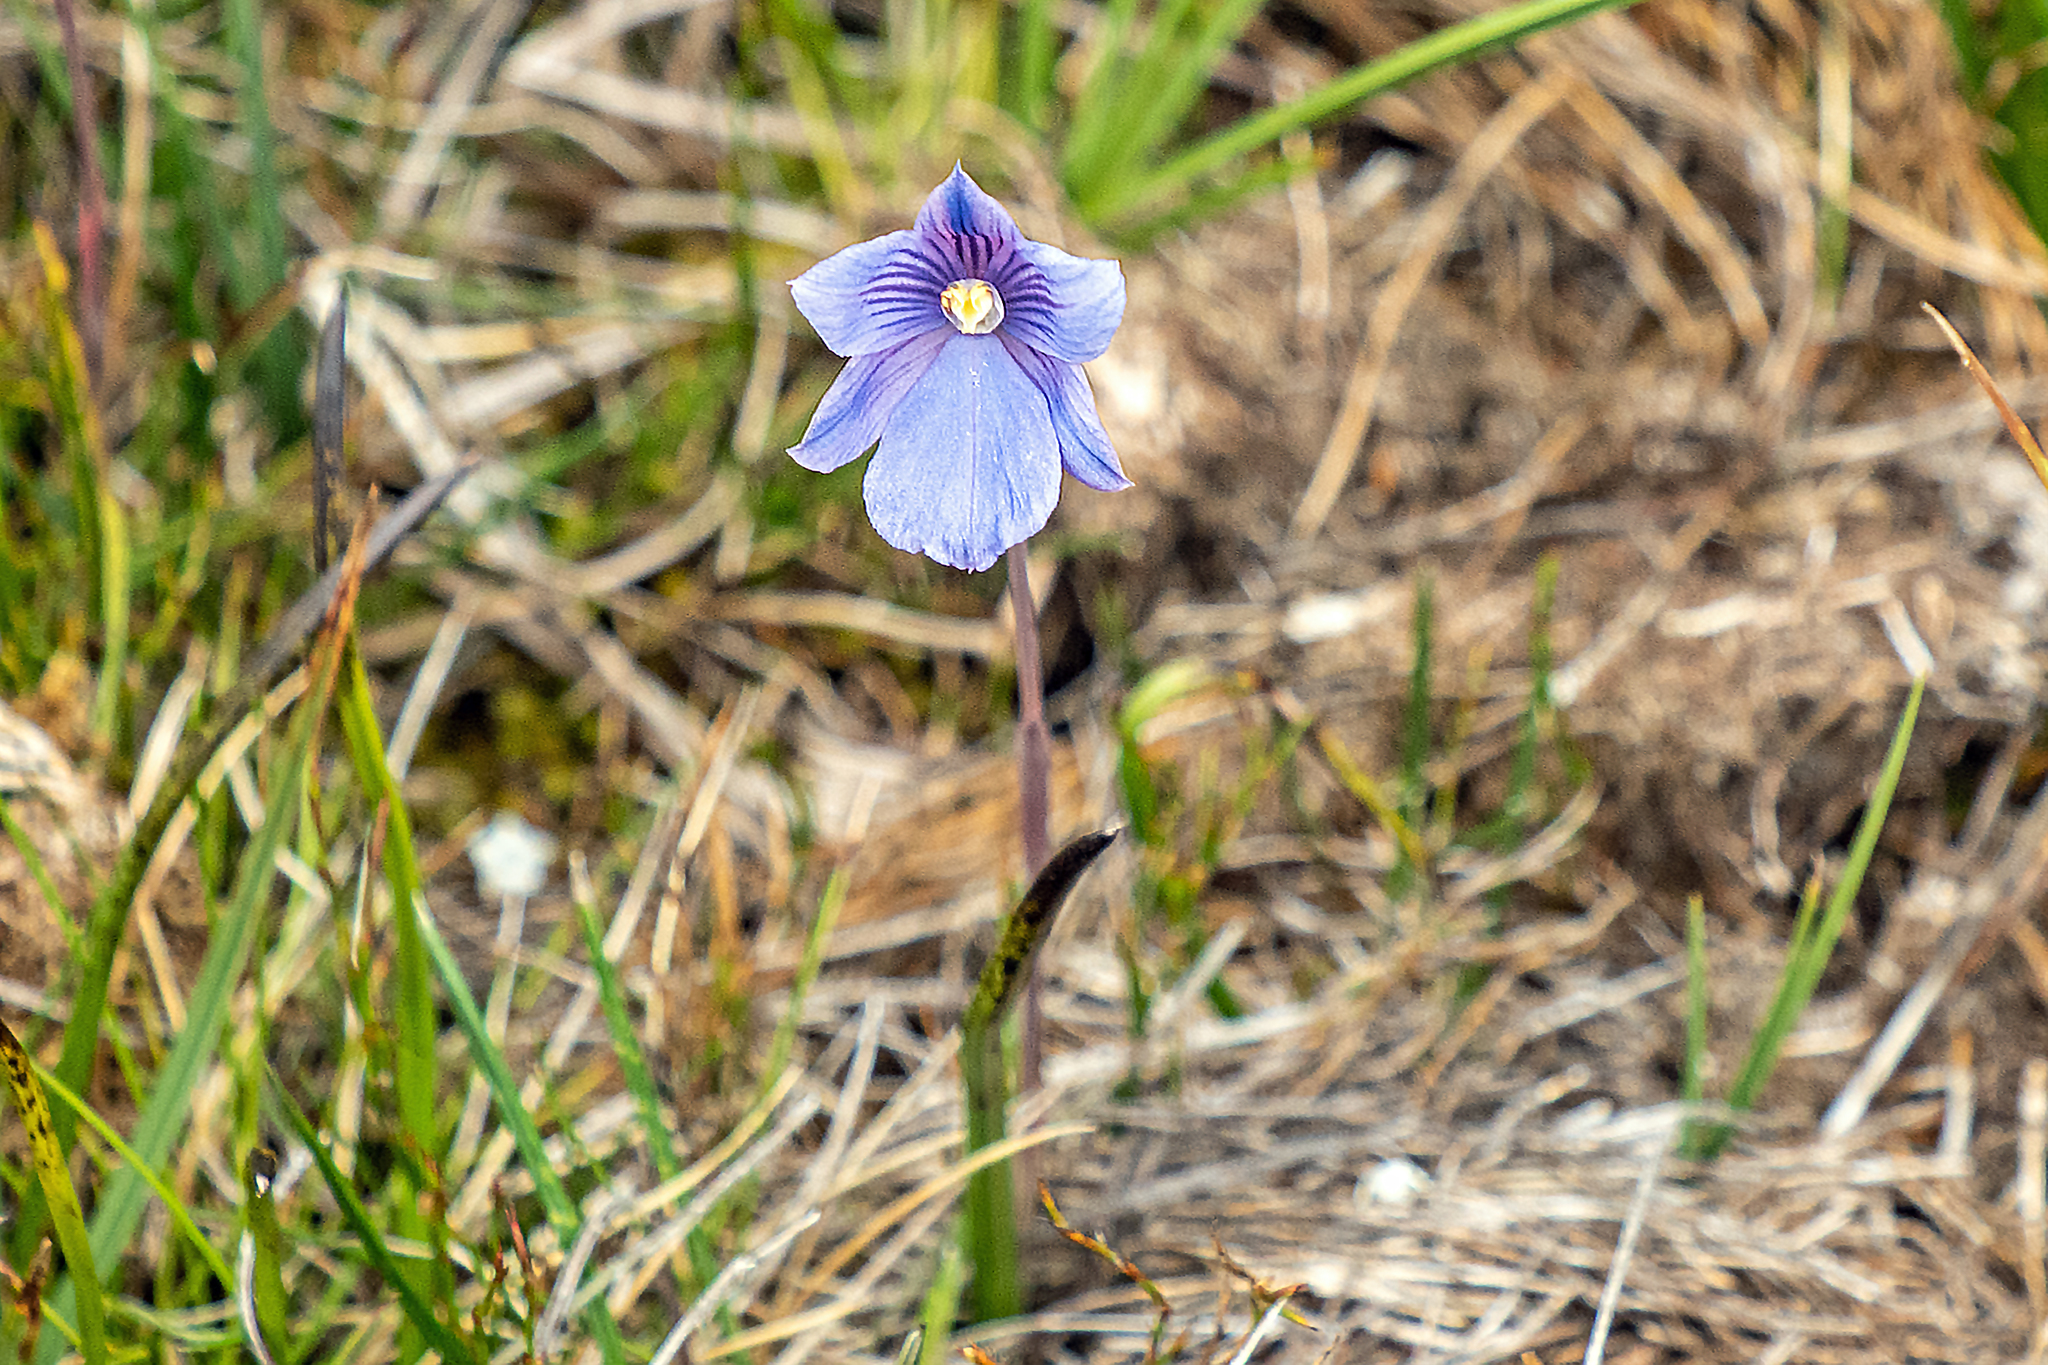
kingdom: Plantae
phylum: Tracheophyta
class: Liliopsida
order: Asparagales
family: Orchidaceae
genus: Thelymitra
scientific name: Thelymitra cyanea
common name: Blue sun-orchid
